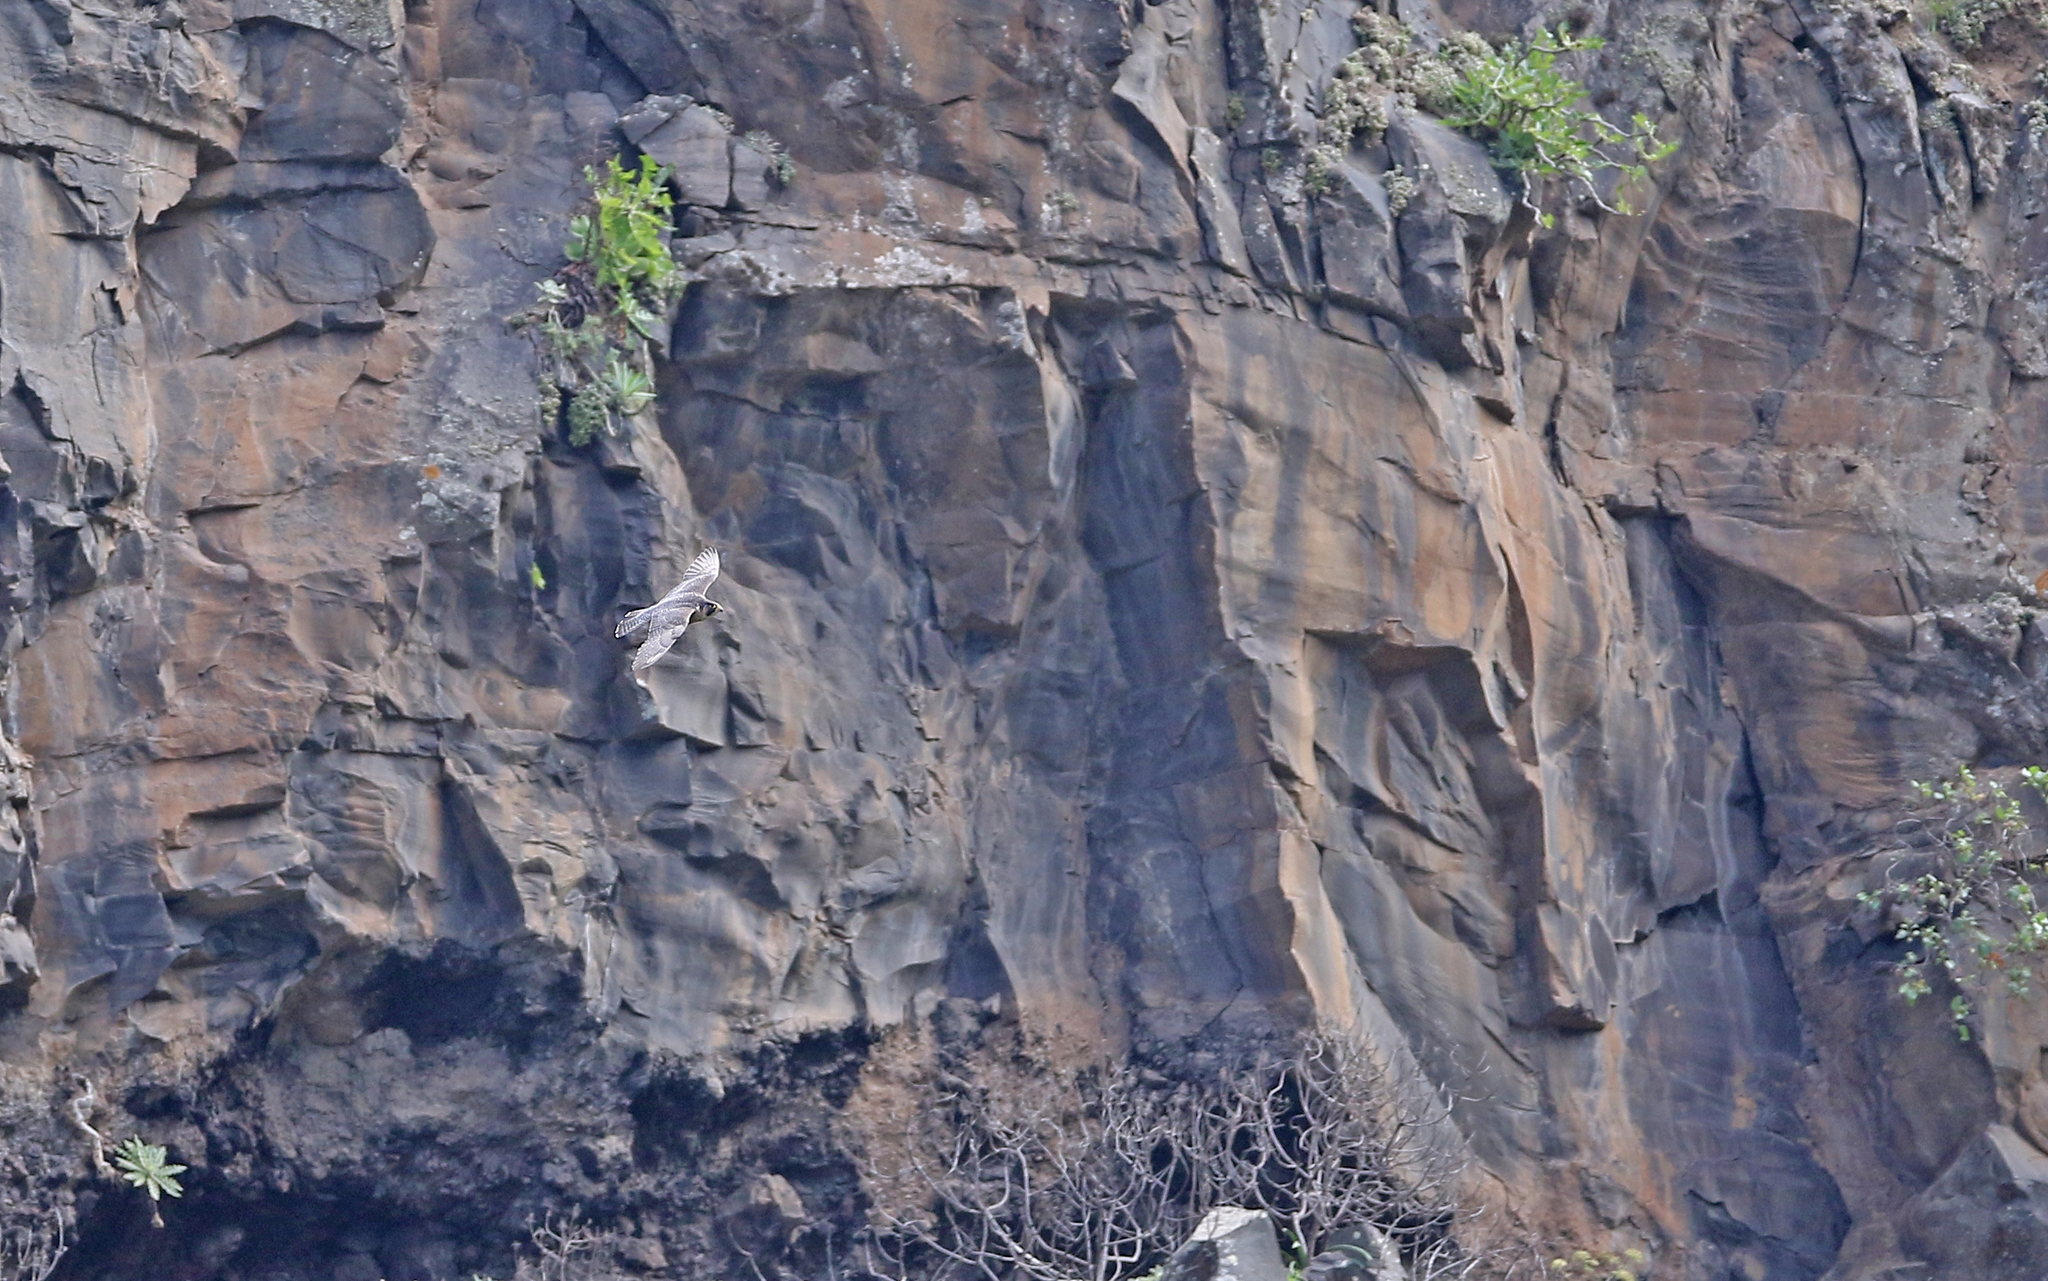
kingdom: Animalia
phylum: Chordata
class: Aves
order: Falconiformes
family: Falconidae
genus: Falco
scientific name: Falco peregrinus
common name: Peregrine falcon
